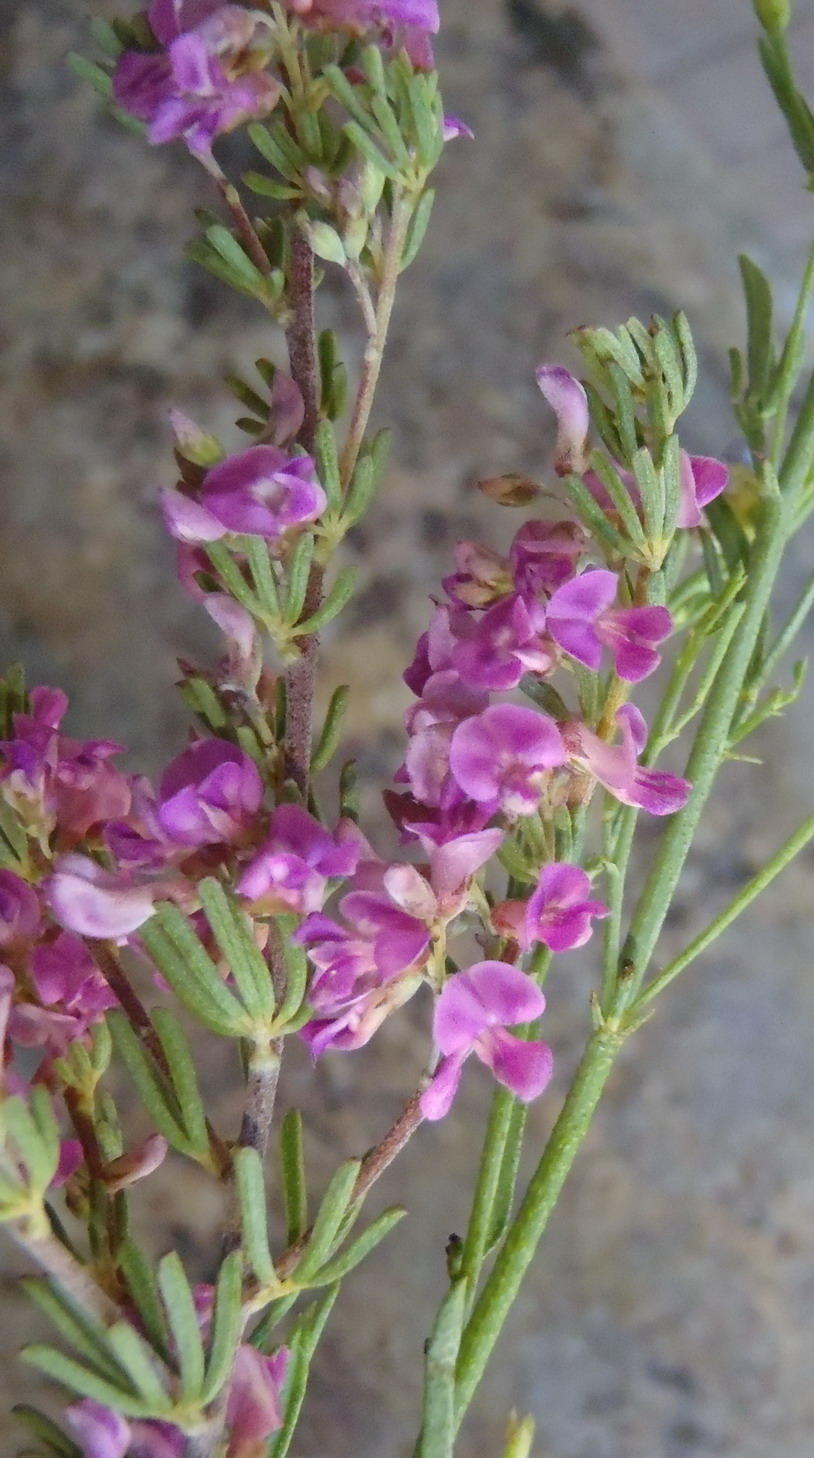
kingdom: Plantae
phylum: Tracheophyta
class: Magnoliopsida
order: Fabales
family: Fabaceae
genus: Indigofera
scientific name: Indigofera pappei
